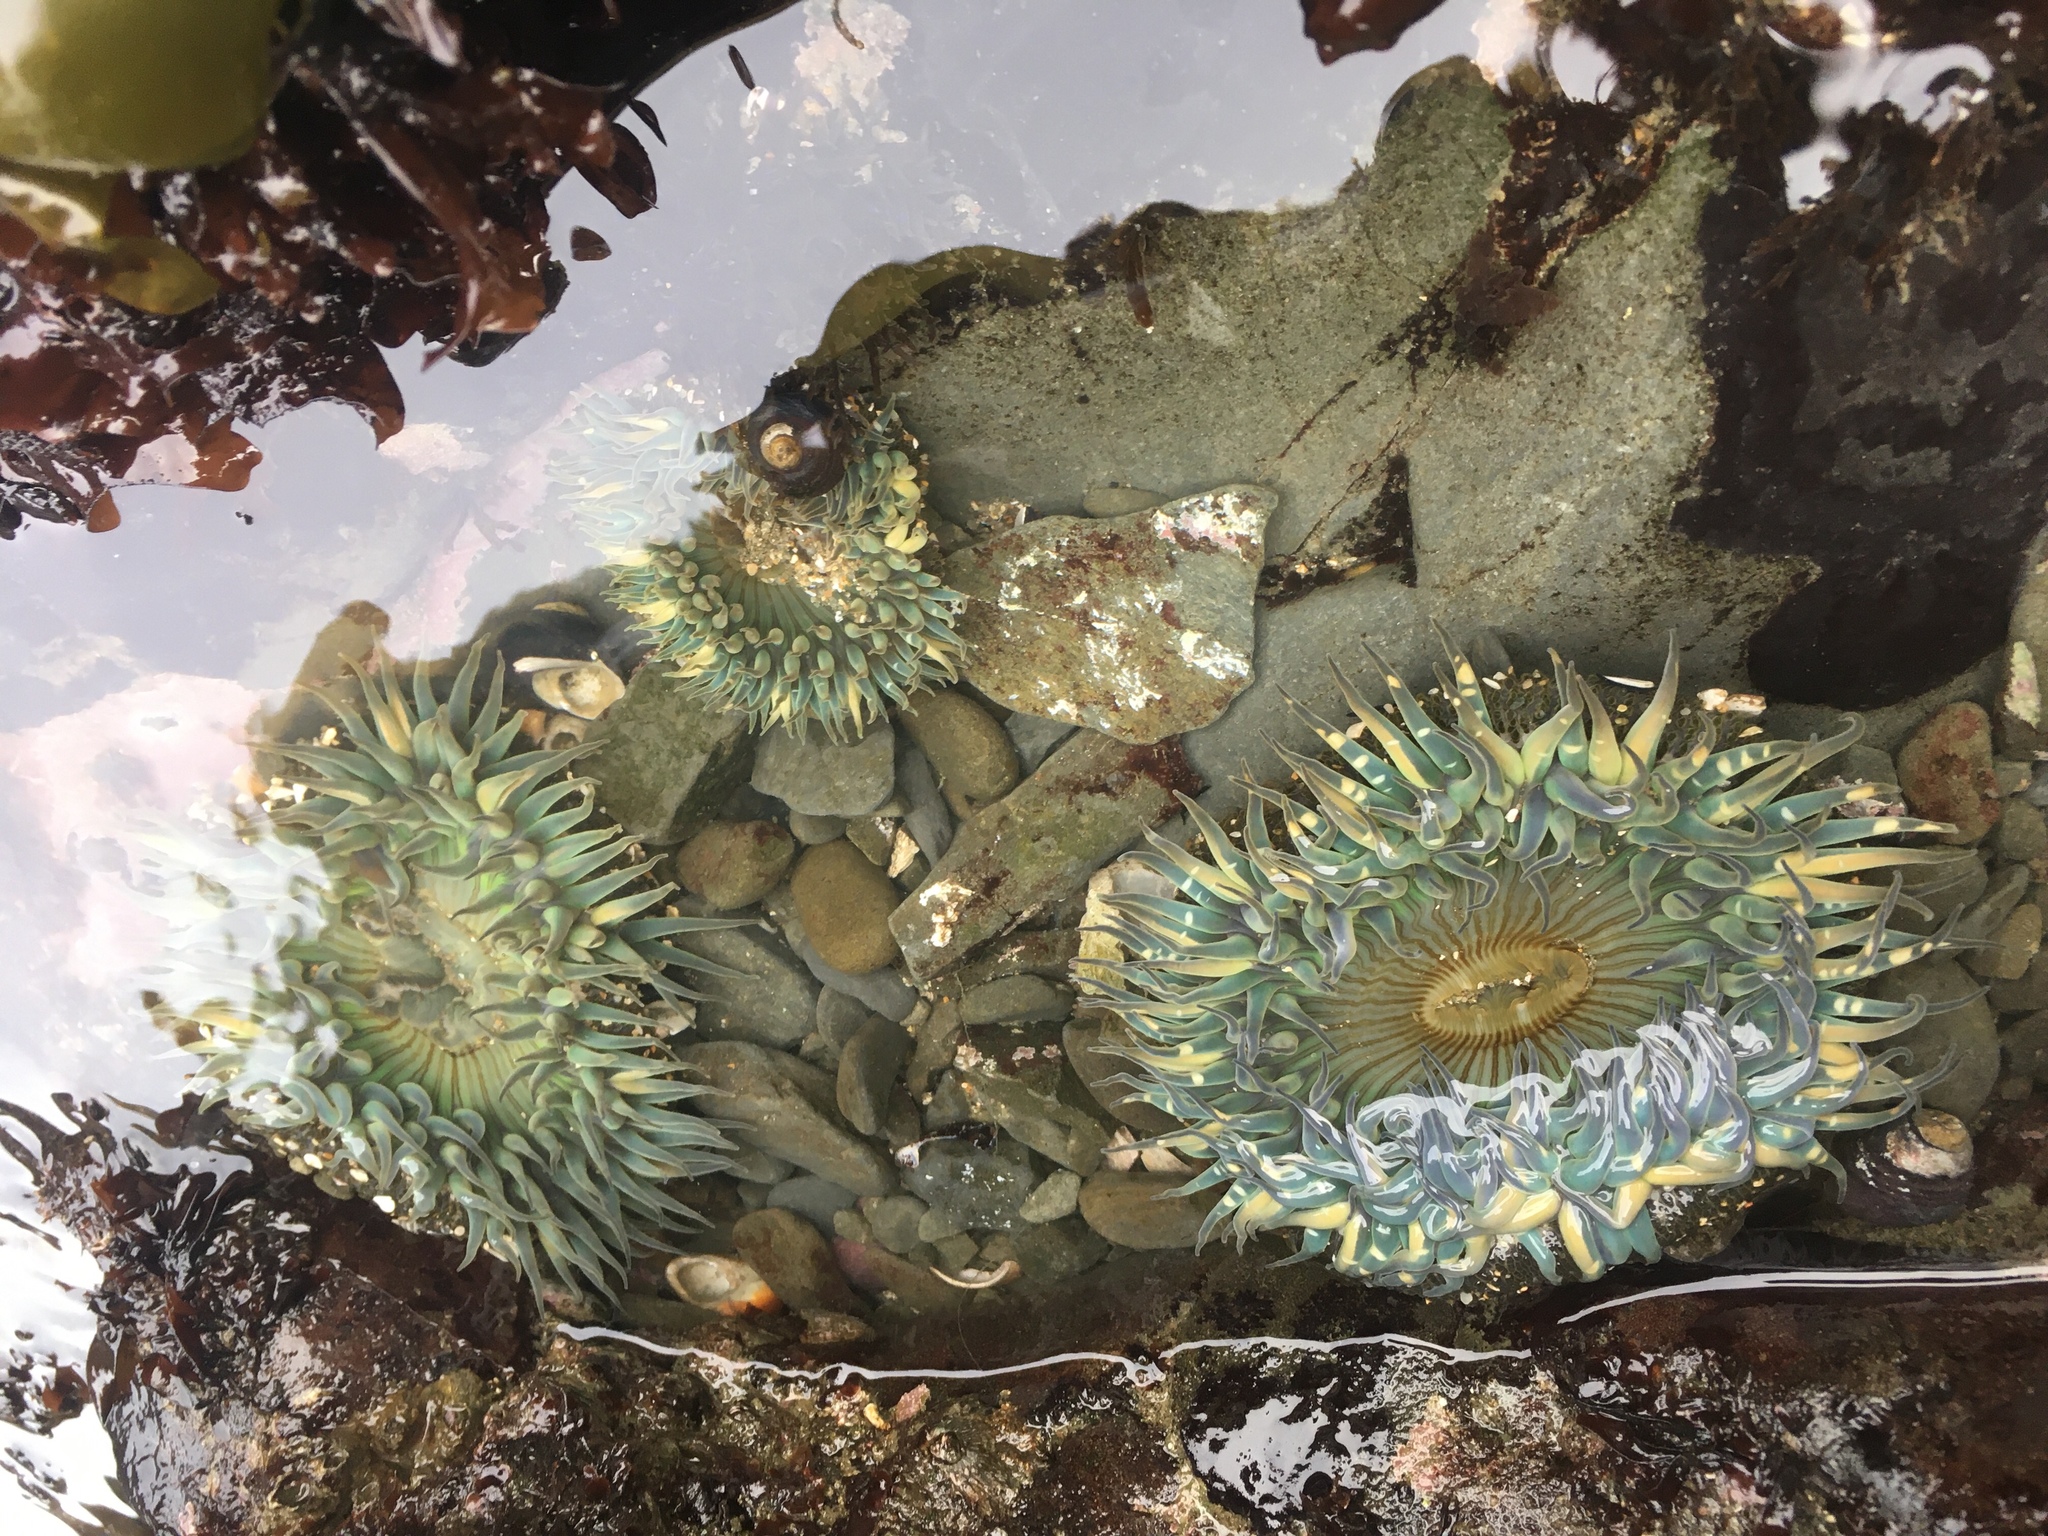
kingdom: Animalia
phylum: Cnidaria
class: Anthozoa
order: Actiniaria
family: Actiniidae
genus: Anthopleura
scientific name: Anthopleura sola
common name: Sun anemone
